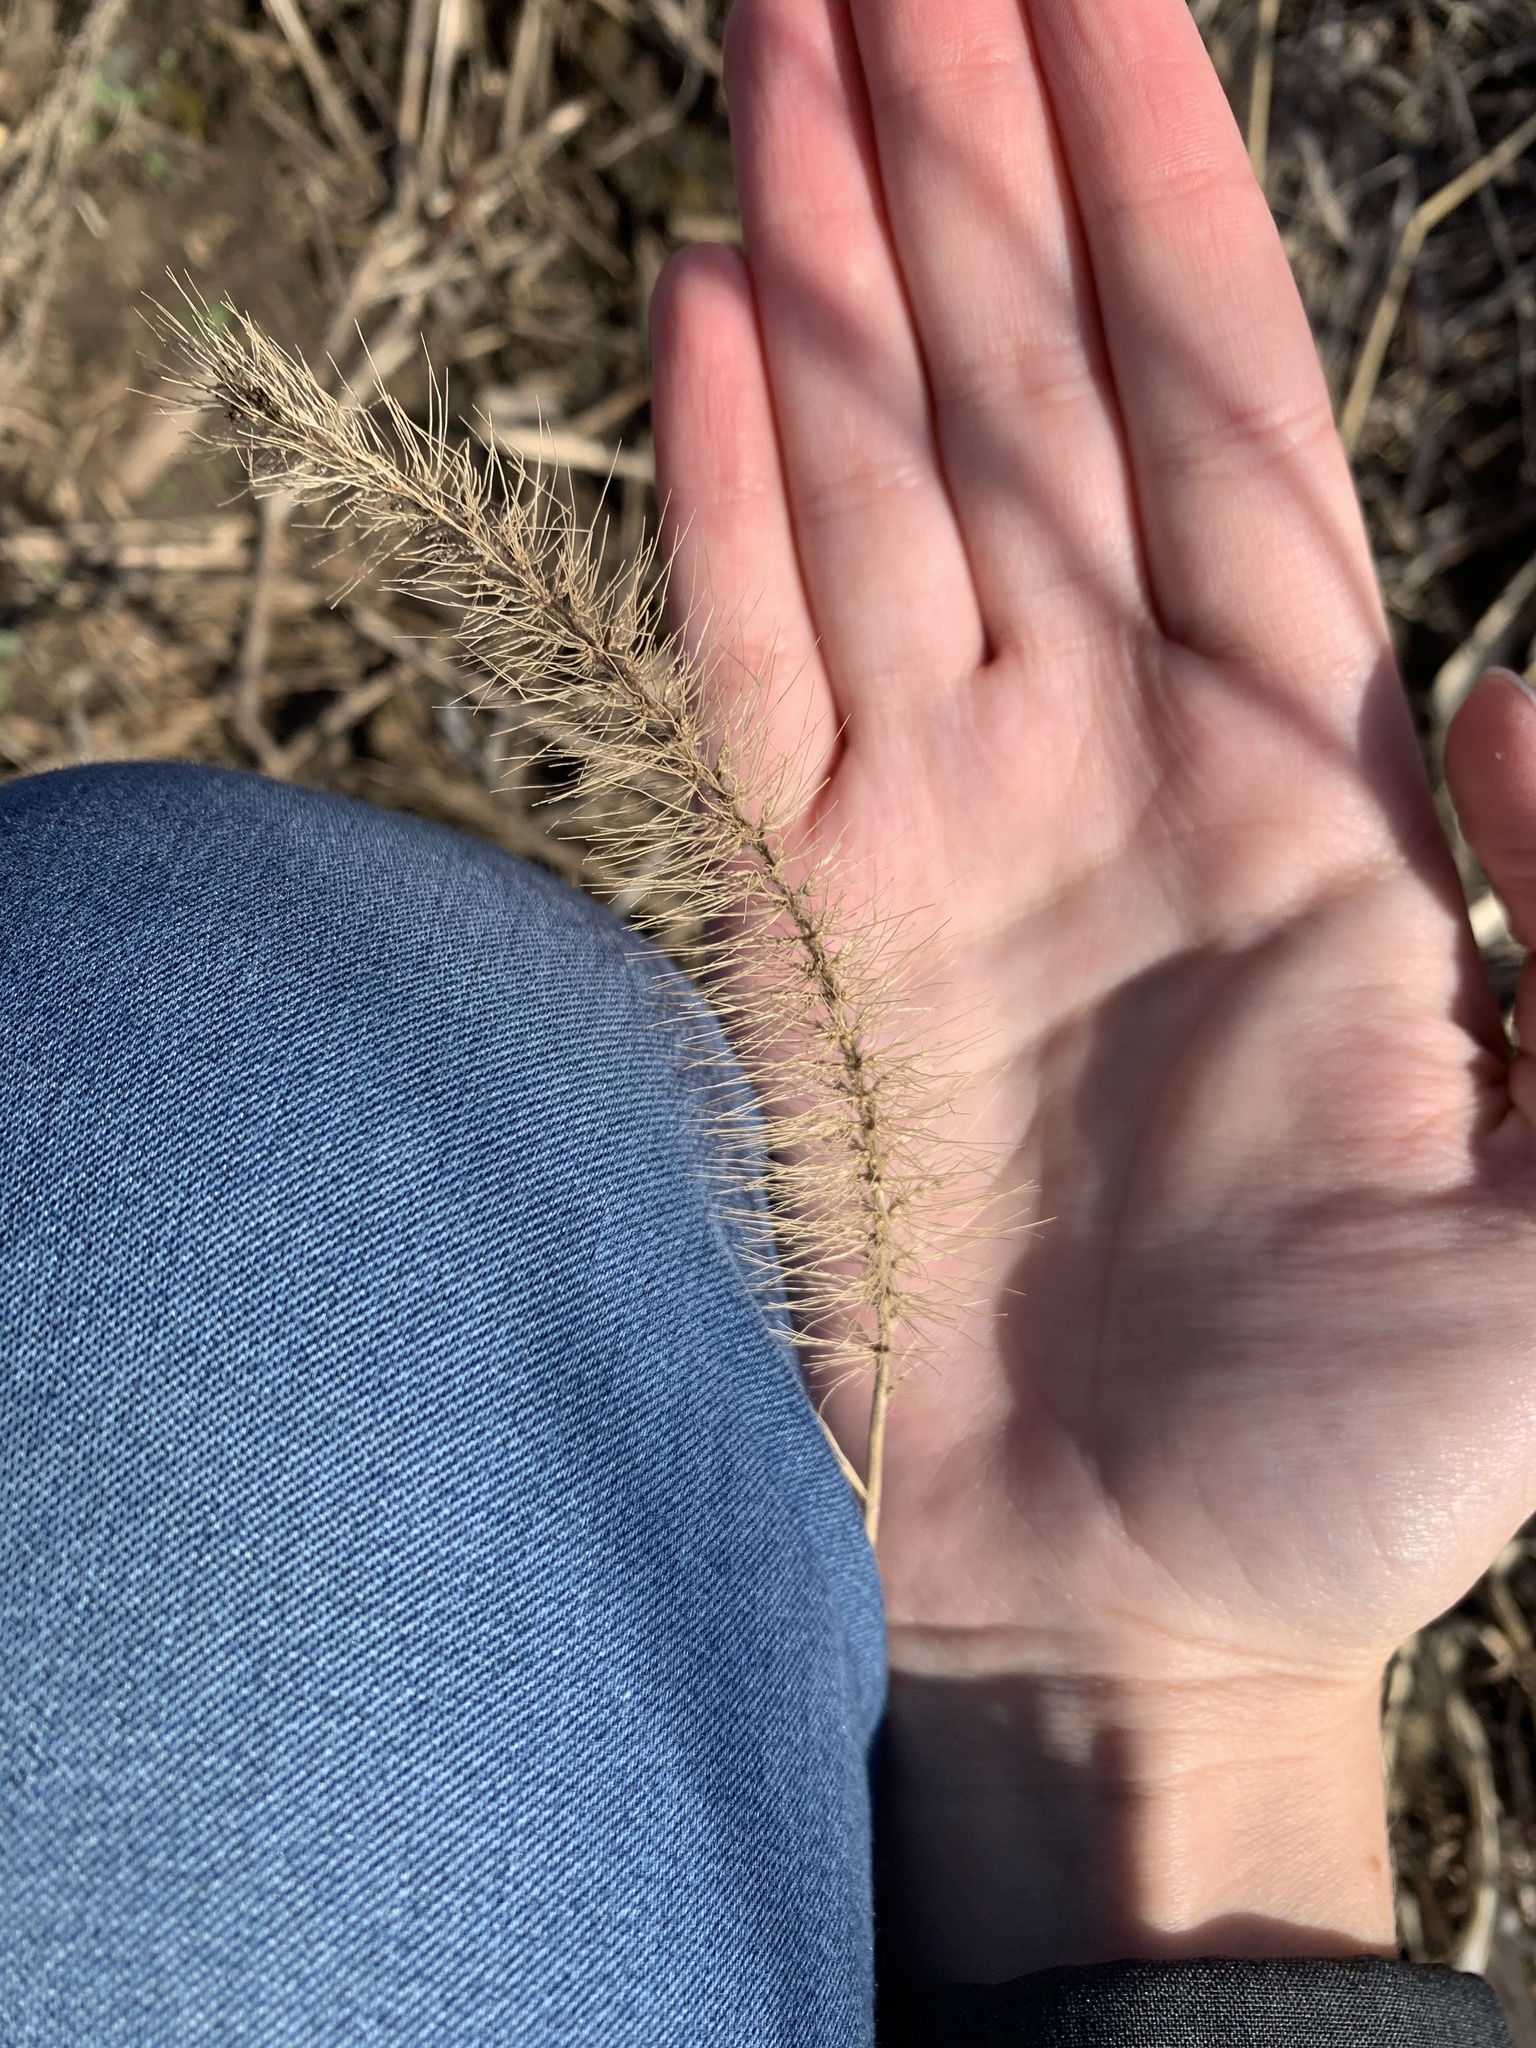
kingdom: Plantae
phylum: Tracheophyta
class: Liliopsida
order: Poales
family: Poaceae
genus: Setaria
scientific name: Setaria faberi
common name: Nodding bristle-grass
